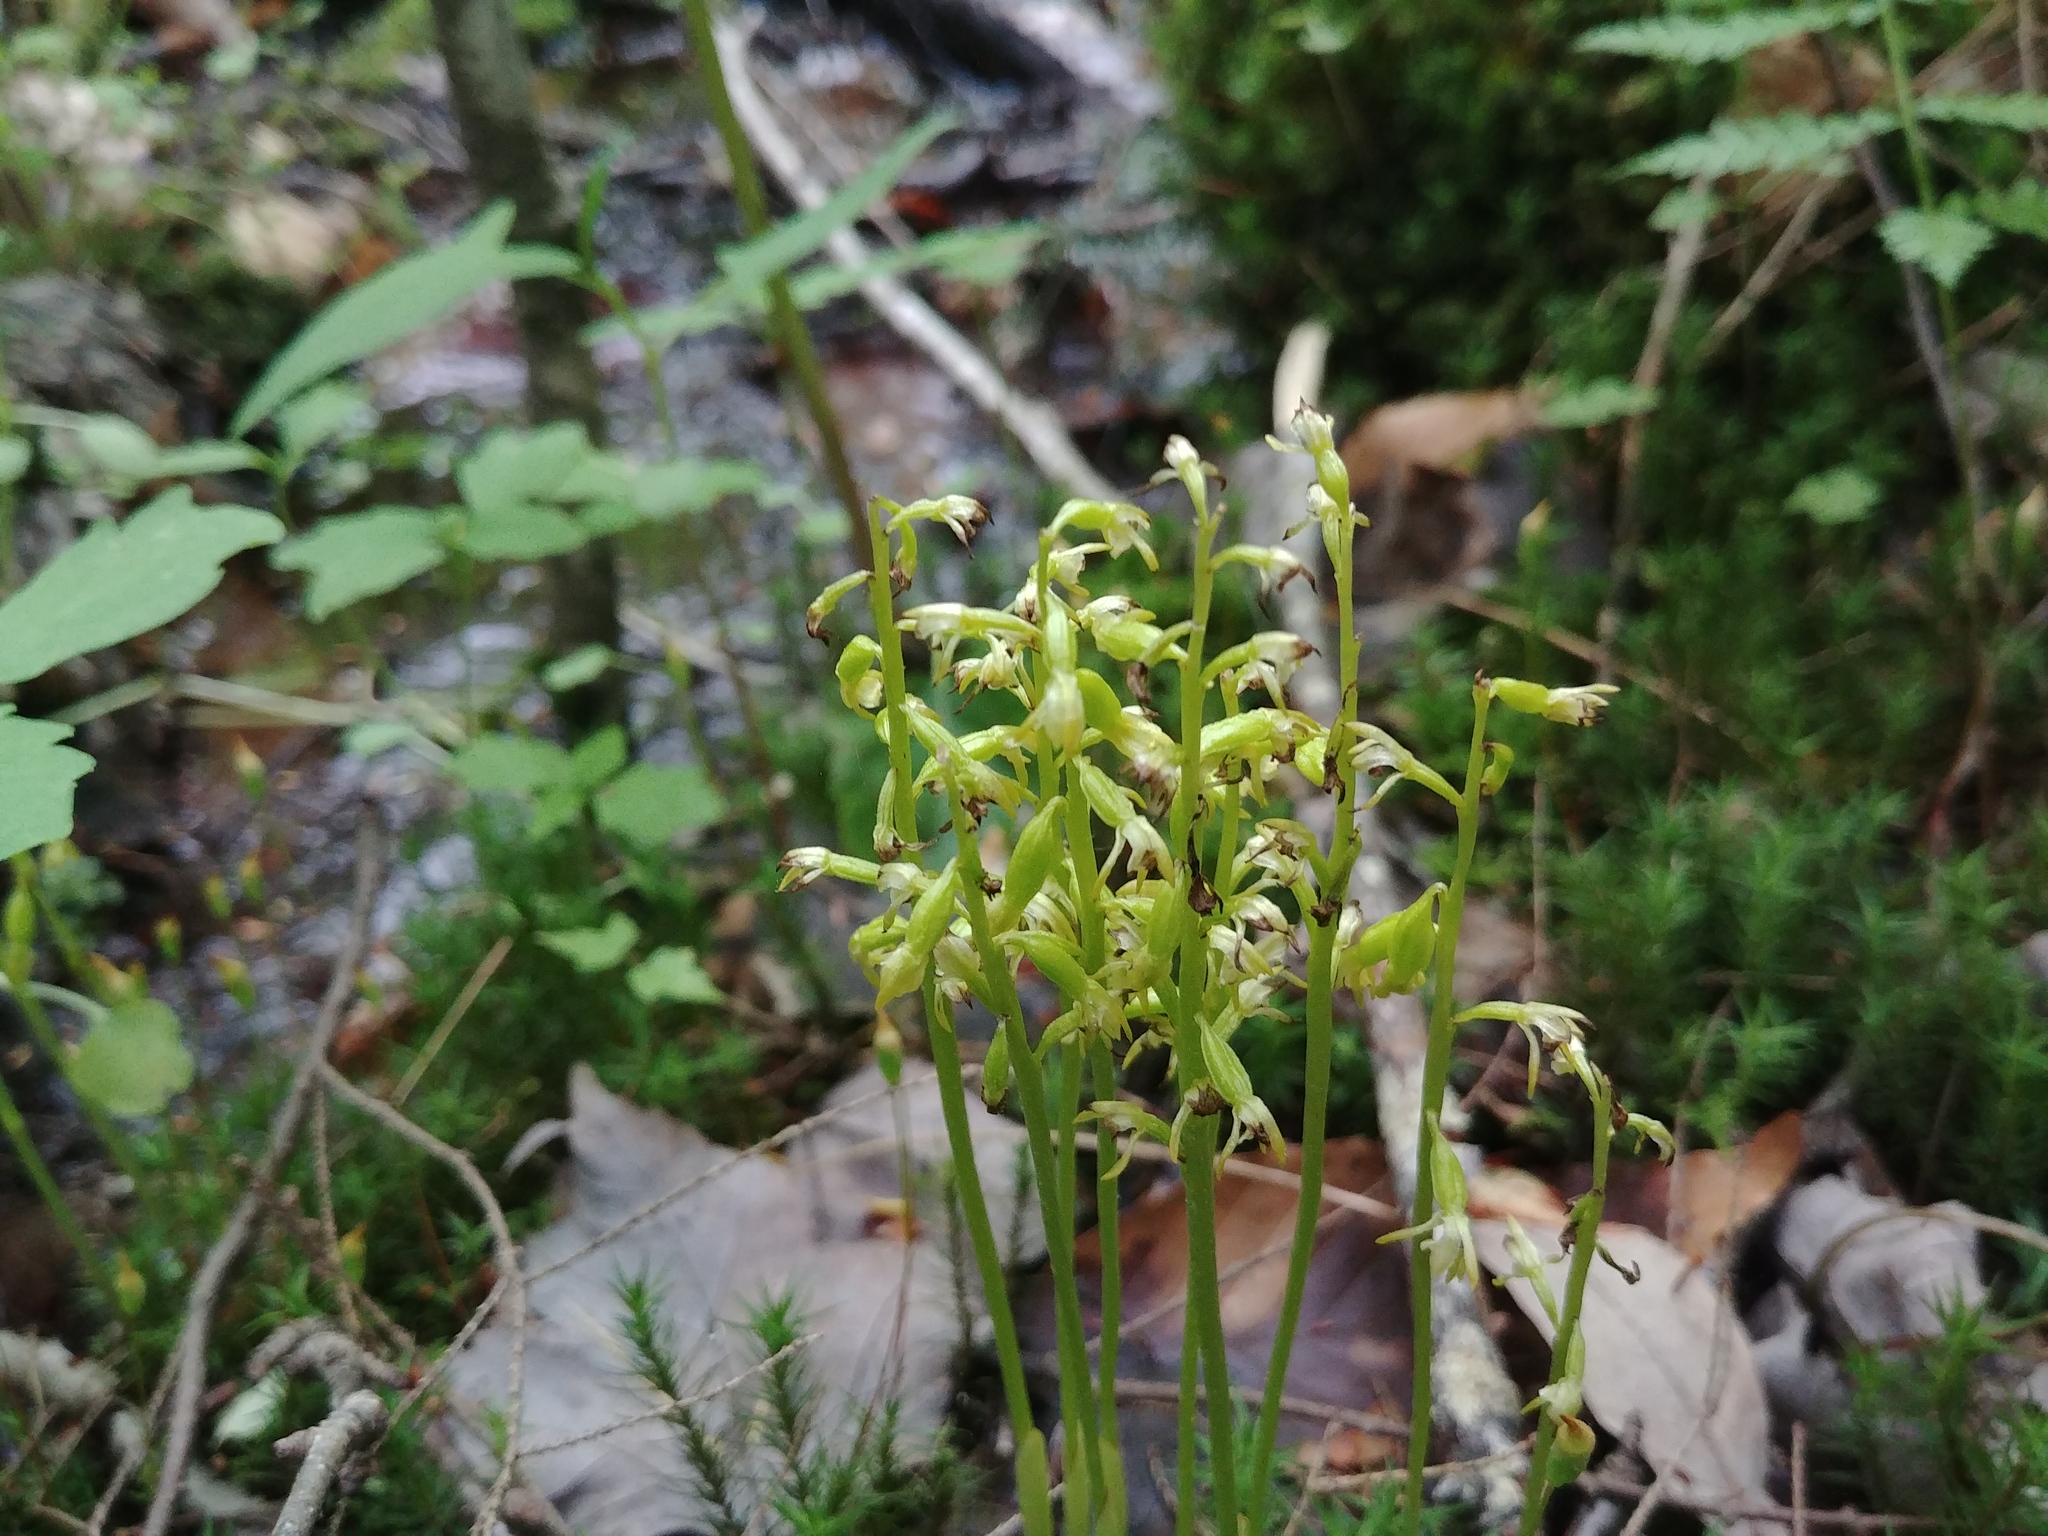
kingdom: Plantae
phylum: Tracheophyta
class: Liliopsida
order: Asparagales
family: Orchidaceae
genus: Corallorhiza
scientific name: Corallorhiza trifida
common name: Yellow coralroot
